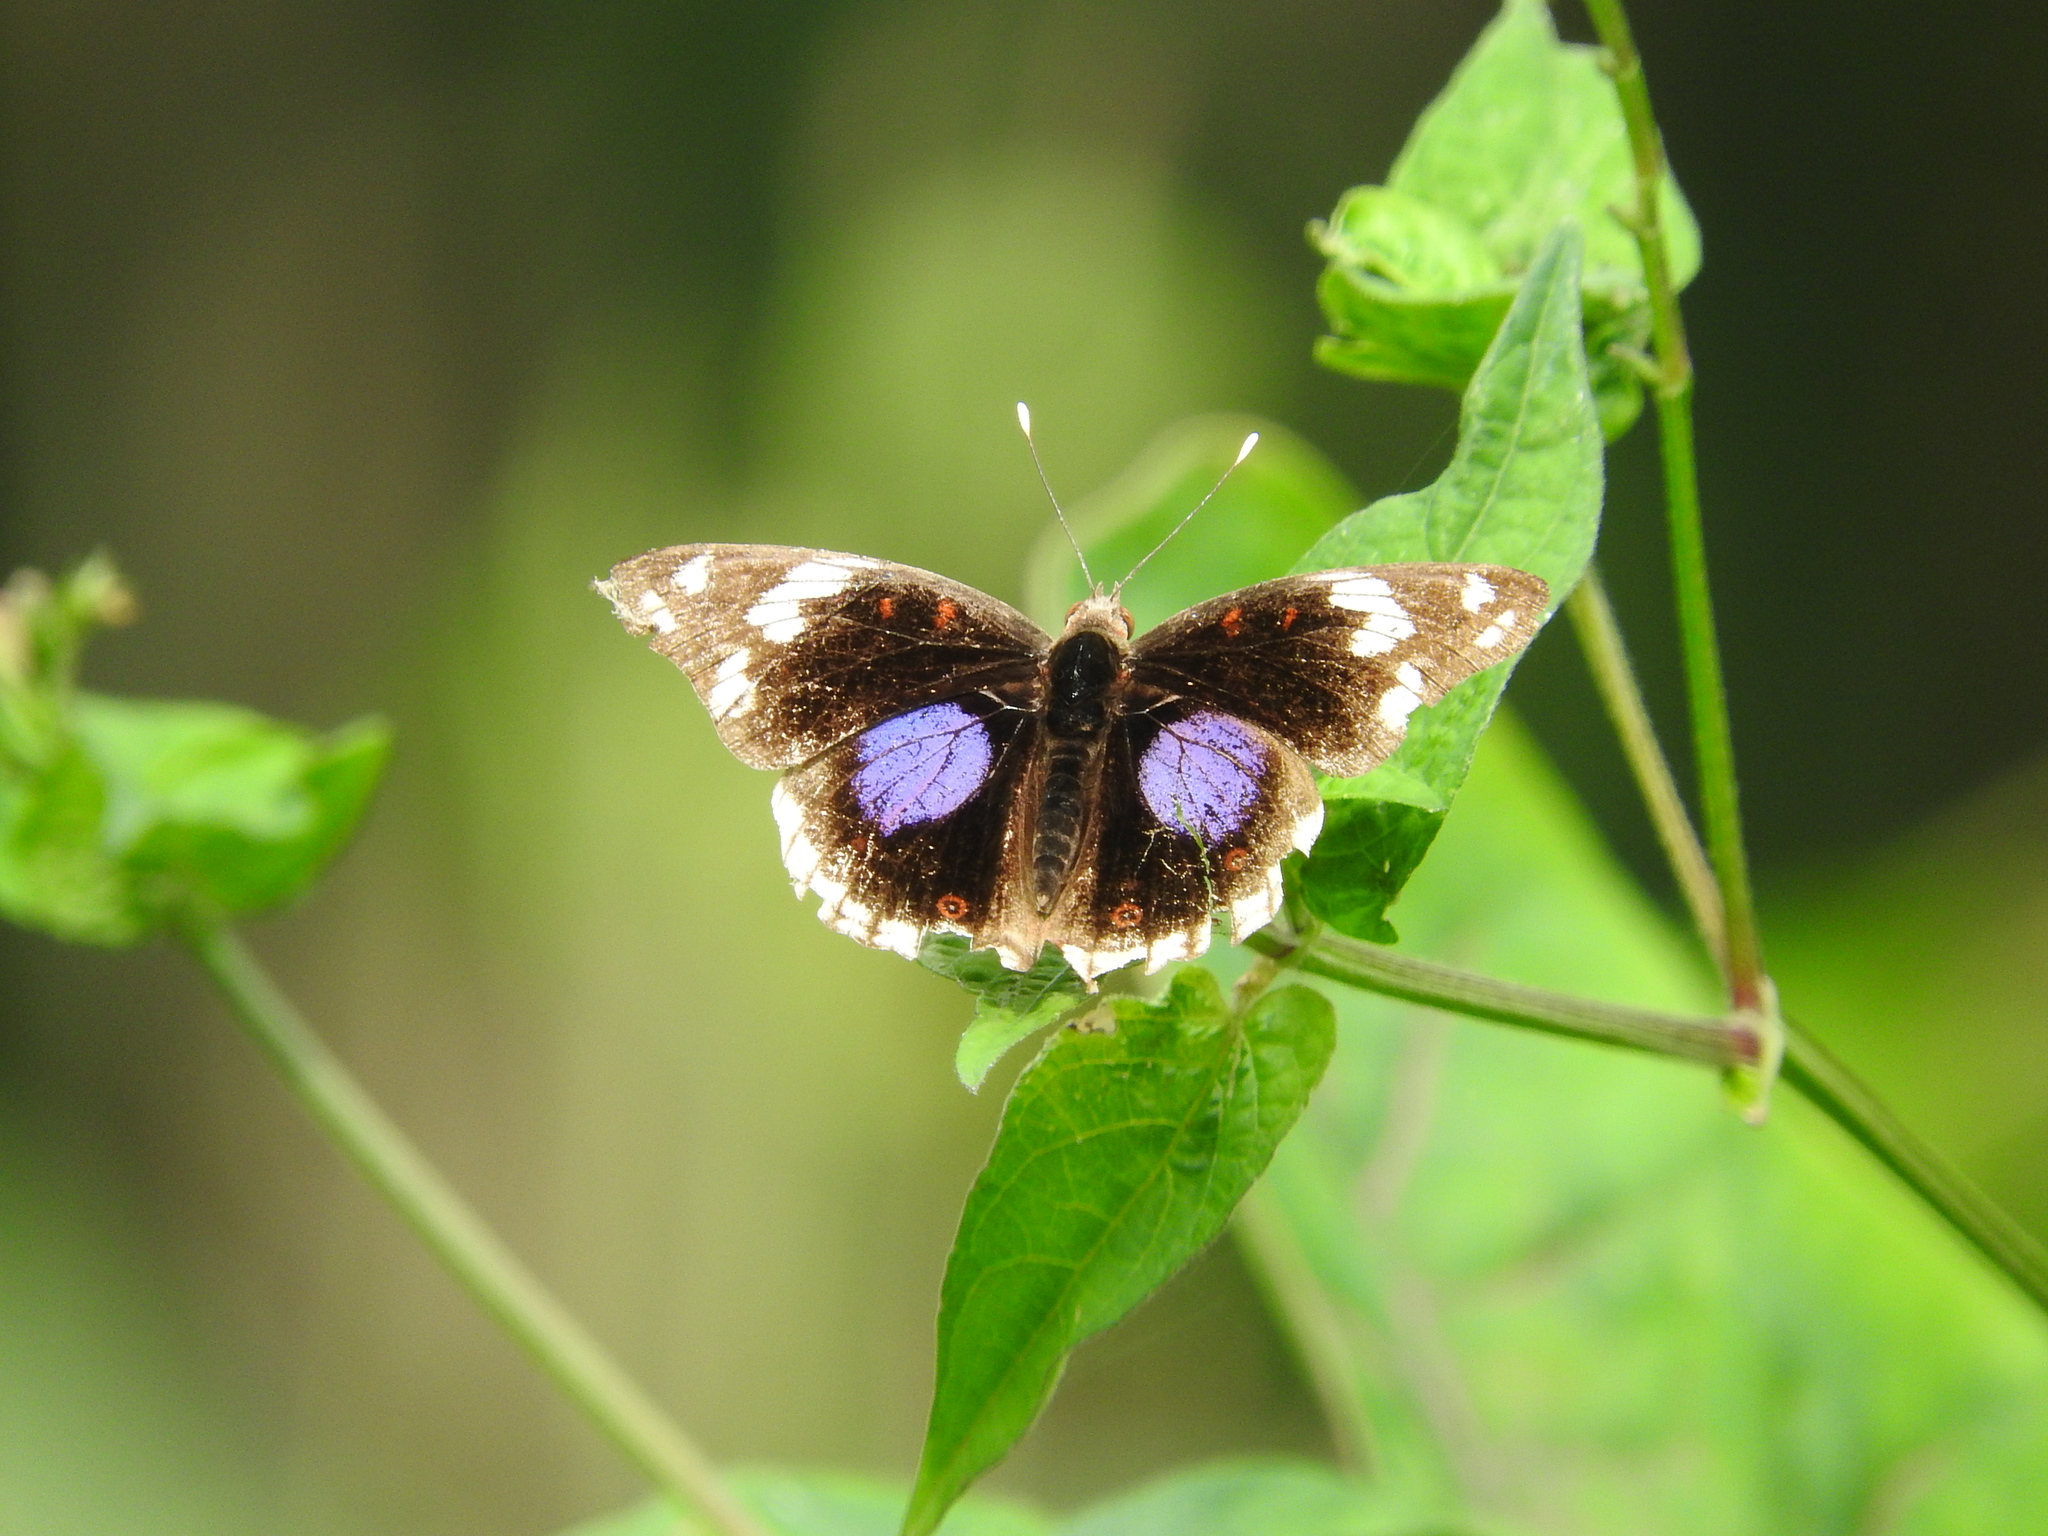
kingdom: Animalia
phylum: Arthropoda
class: Insecta
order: Lepidoptera
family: Nymphalidae
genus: Junonia
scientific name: Junonia oenone
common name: Dark blue pansy
